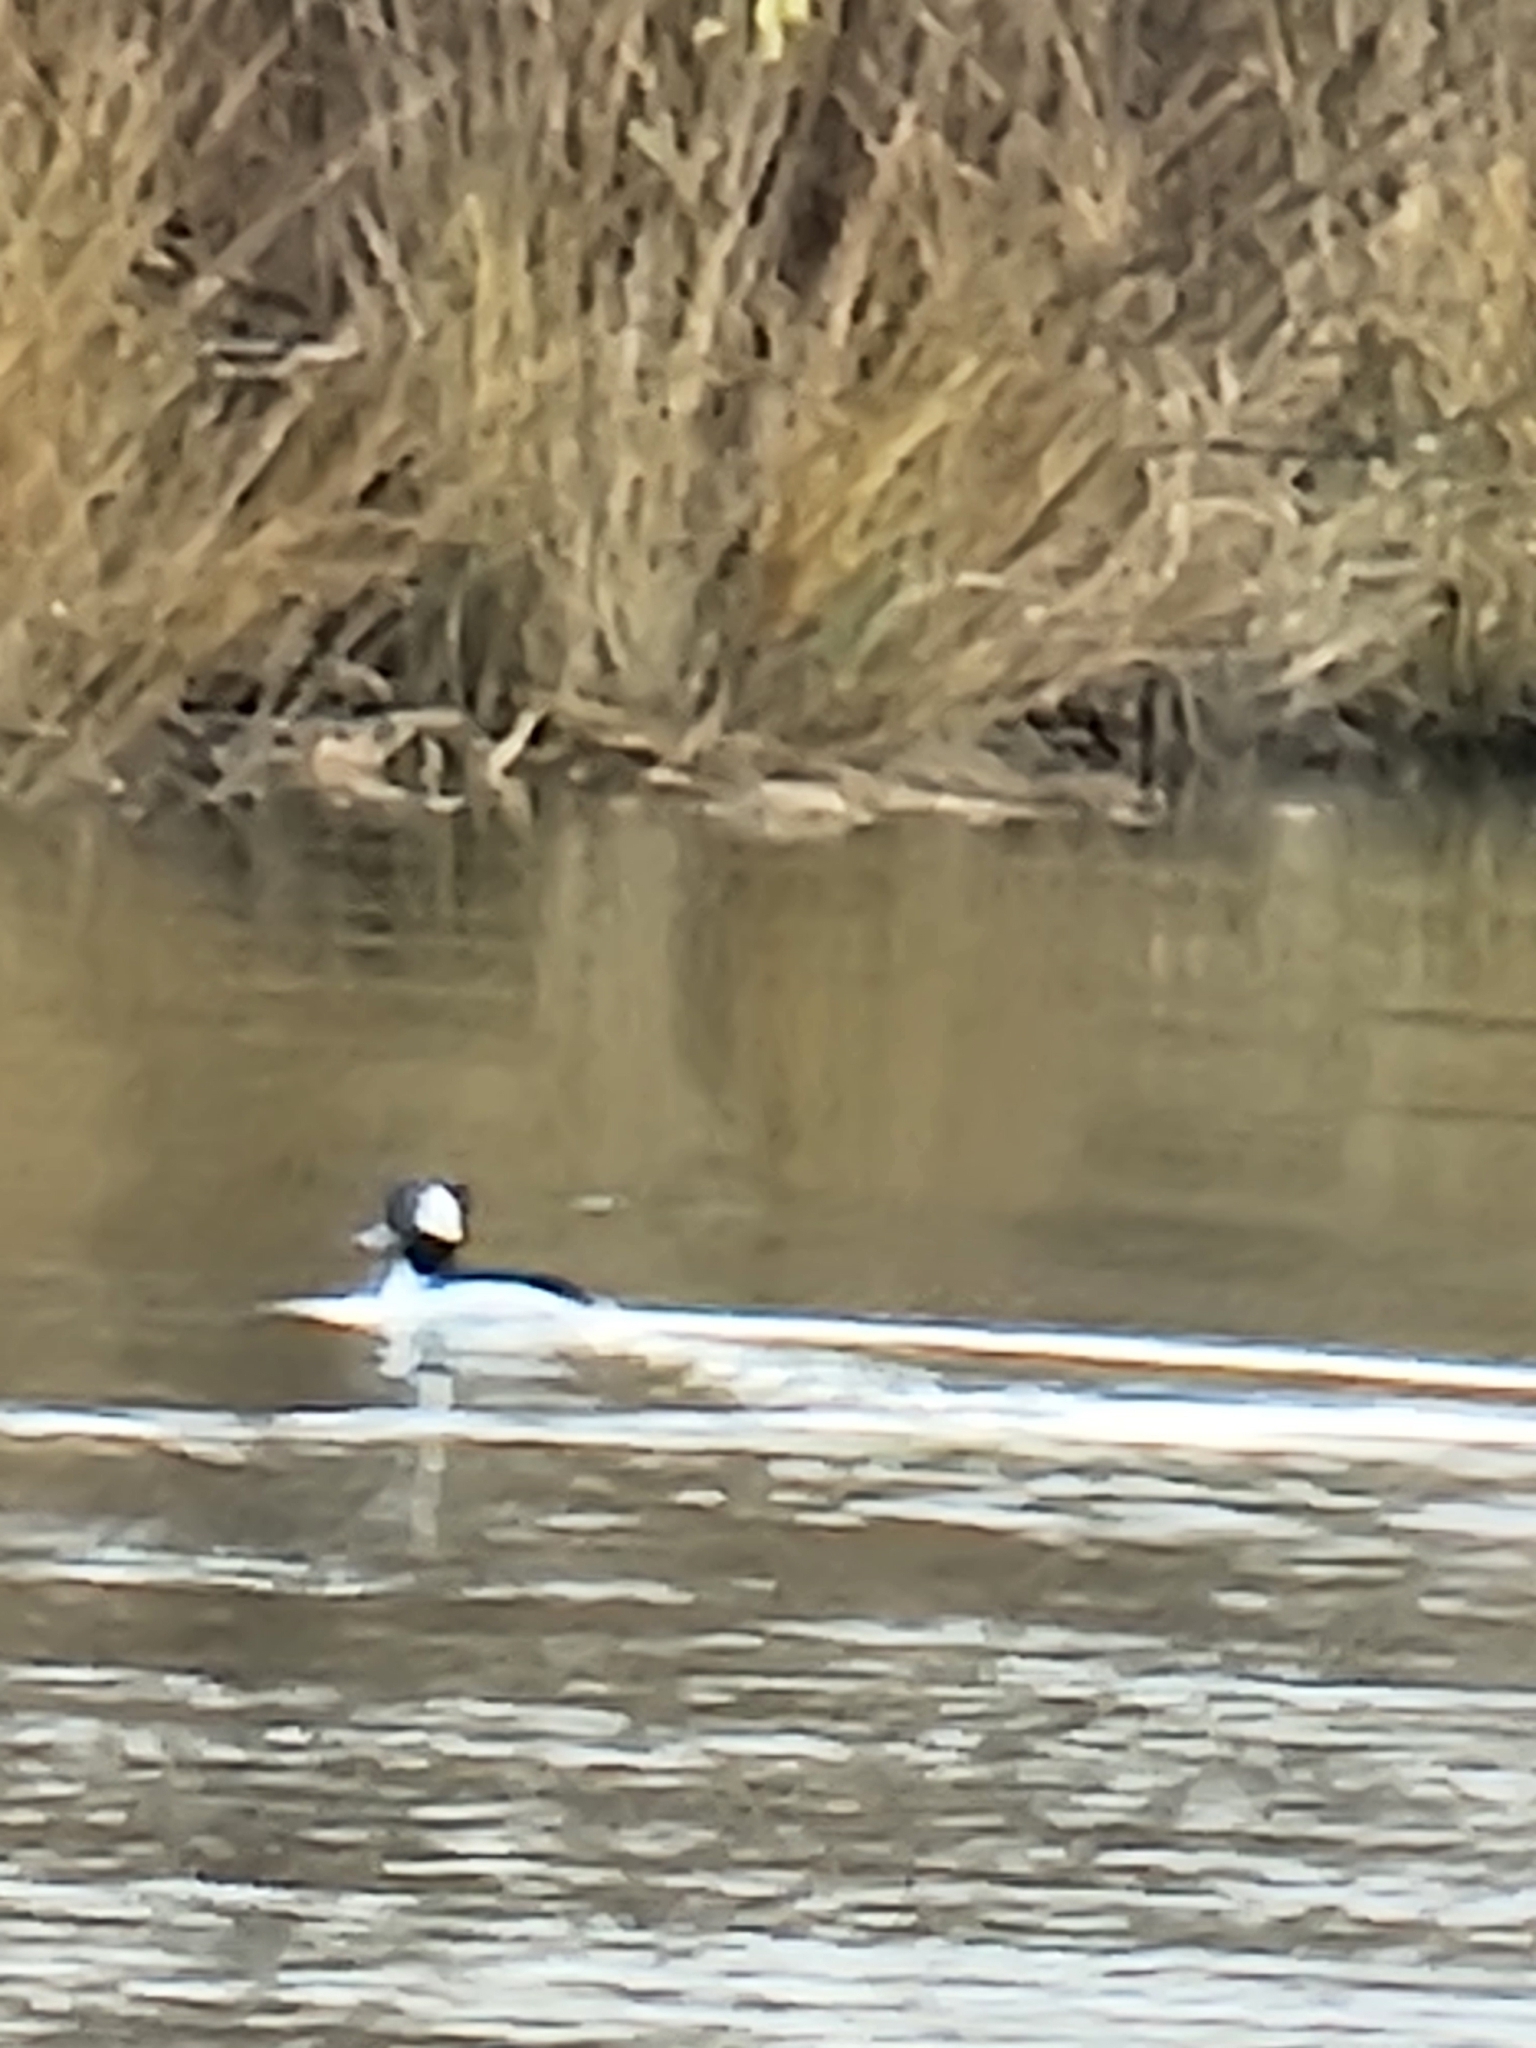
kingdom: Animalia
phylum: Chordata
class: Aves
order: Anseriformes
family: Anatidae
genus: Bucephala
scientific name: Bucephala albeola
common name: Bufflehead
